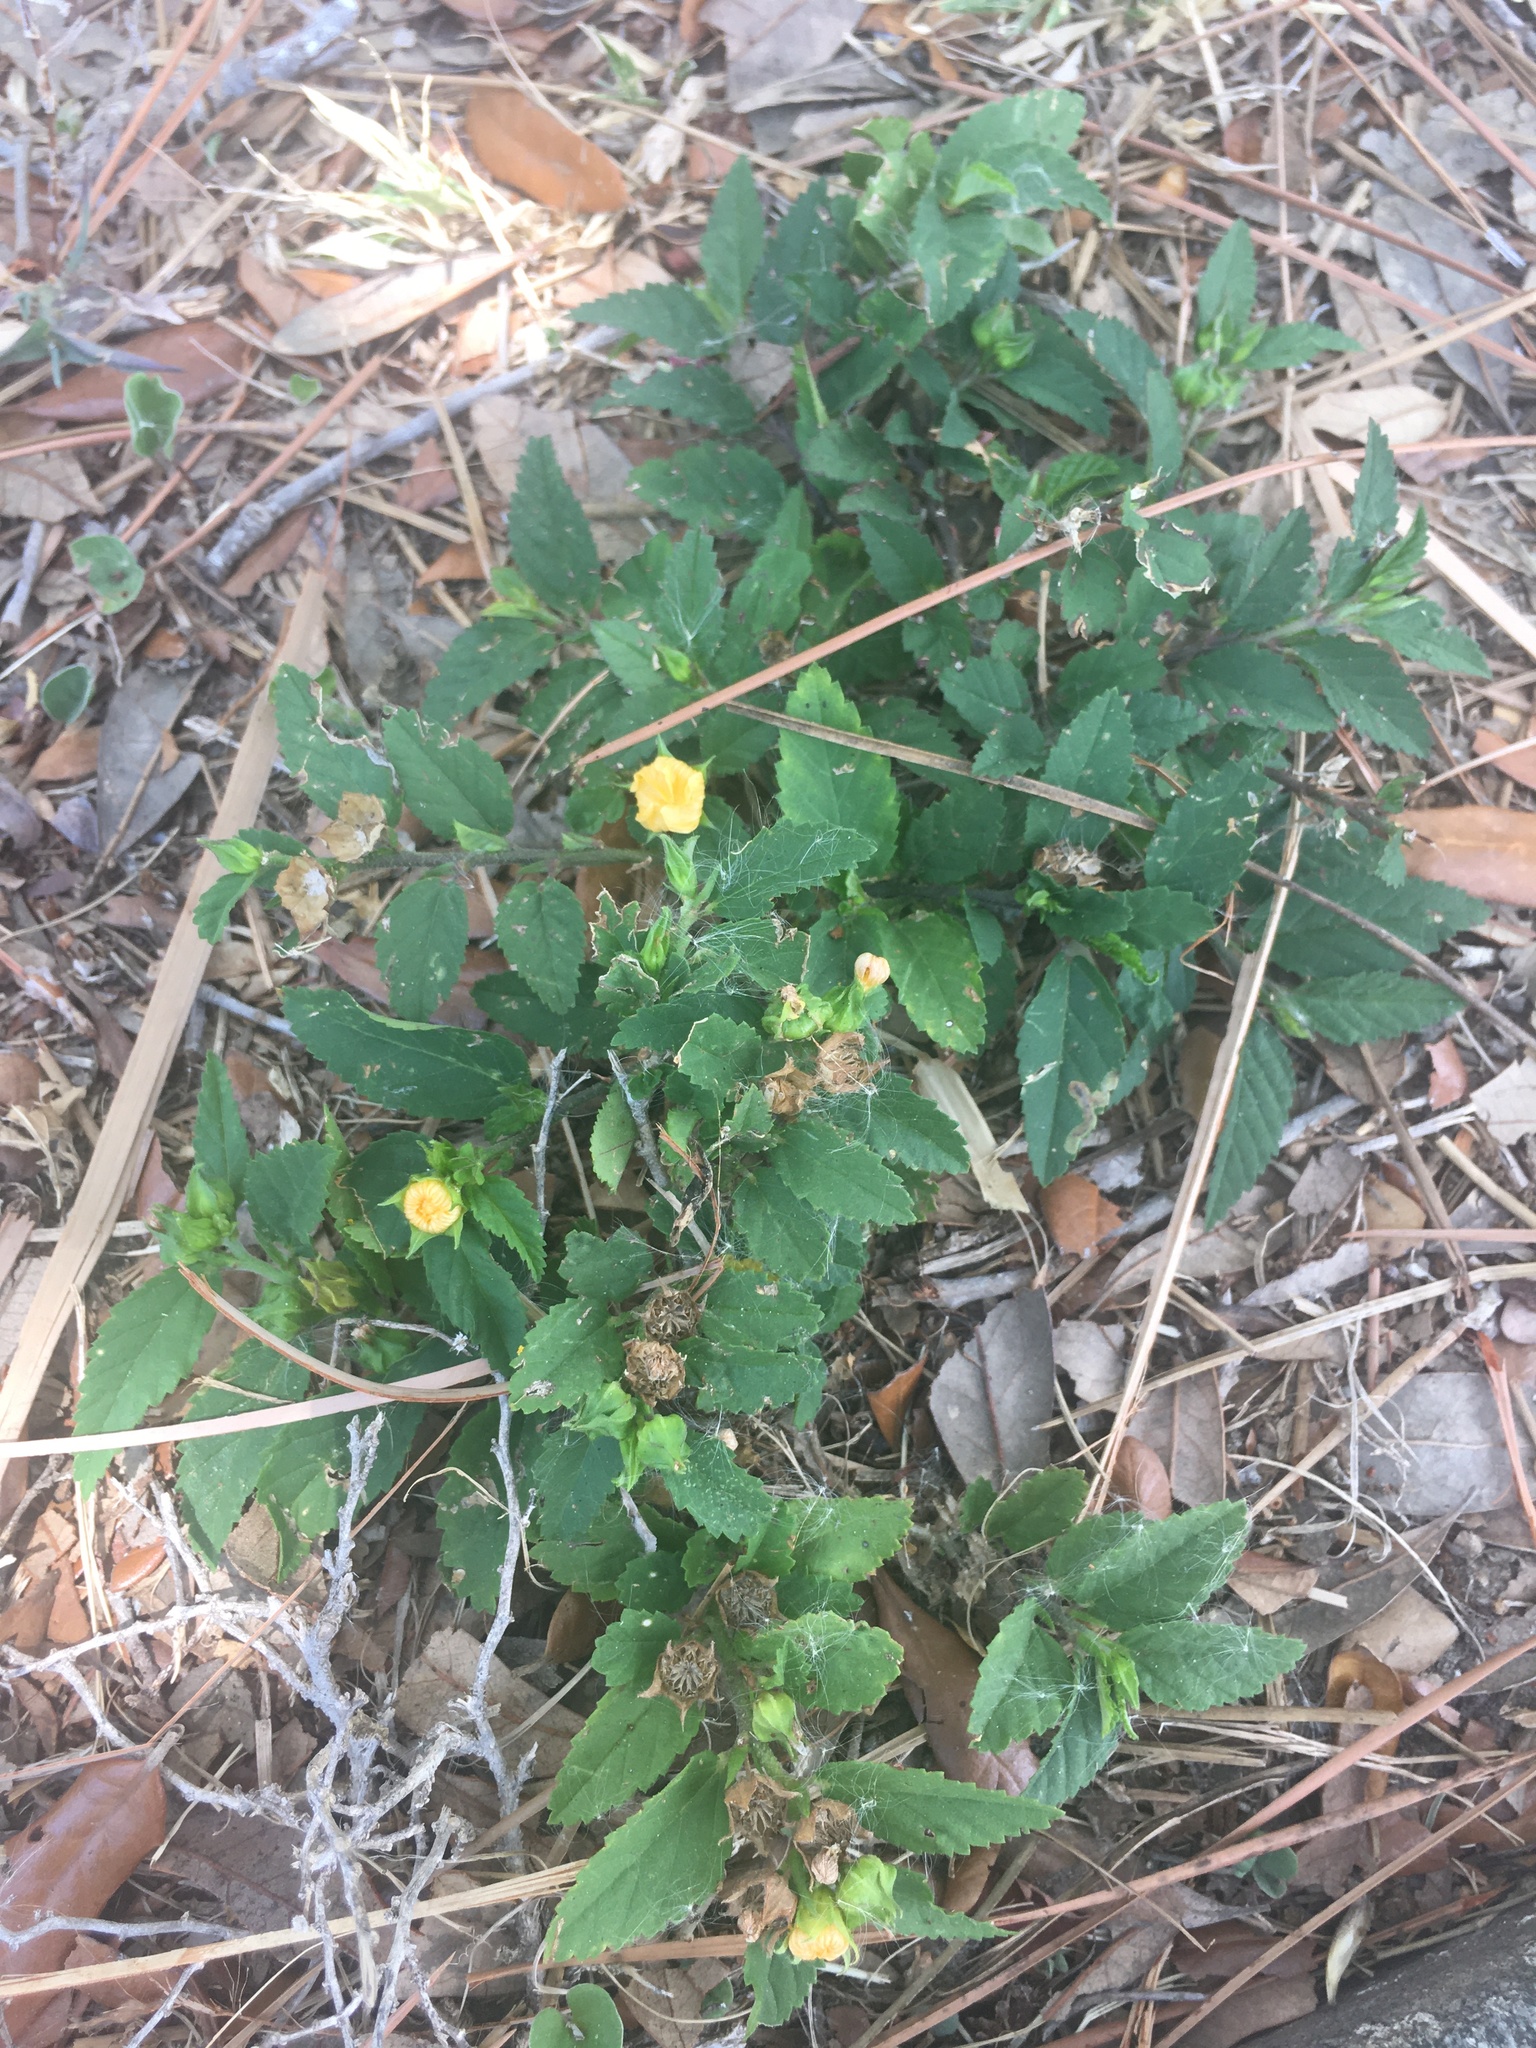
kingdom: Plantae
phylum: Tracheophyta
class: Magnoliopsida
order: Malvales
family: Malvaceae
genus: Sida
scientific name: Sida rhombifolia
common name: Queensland-hemp
